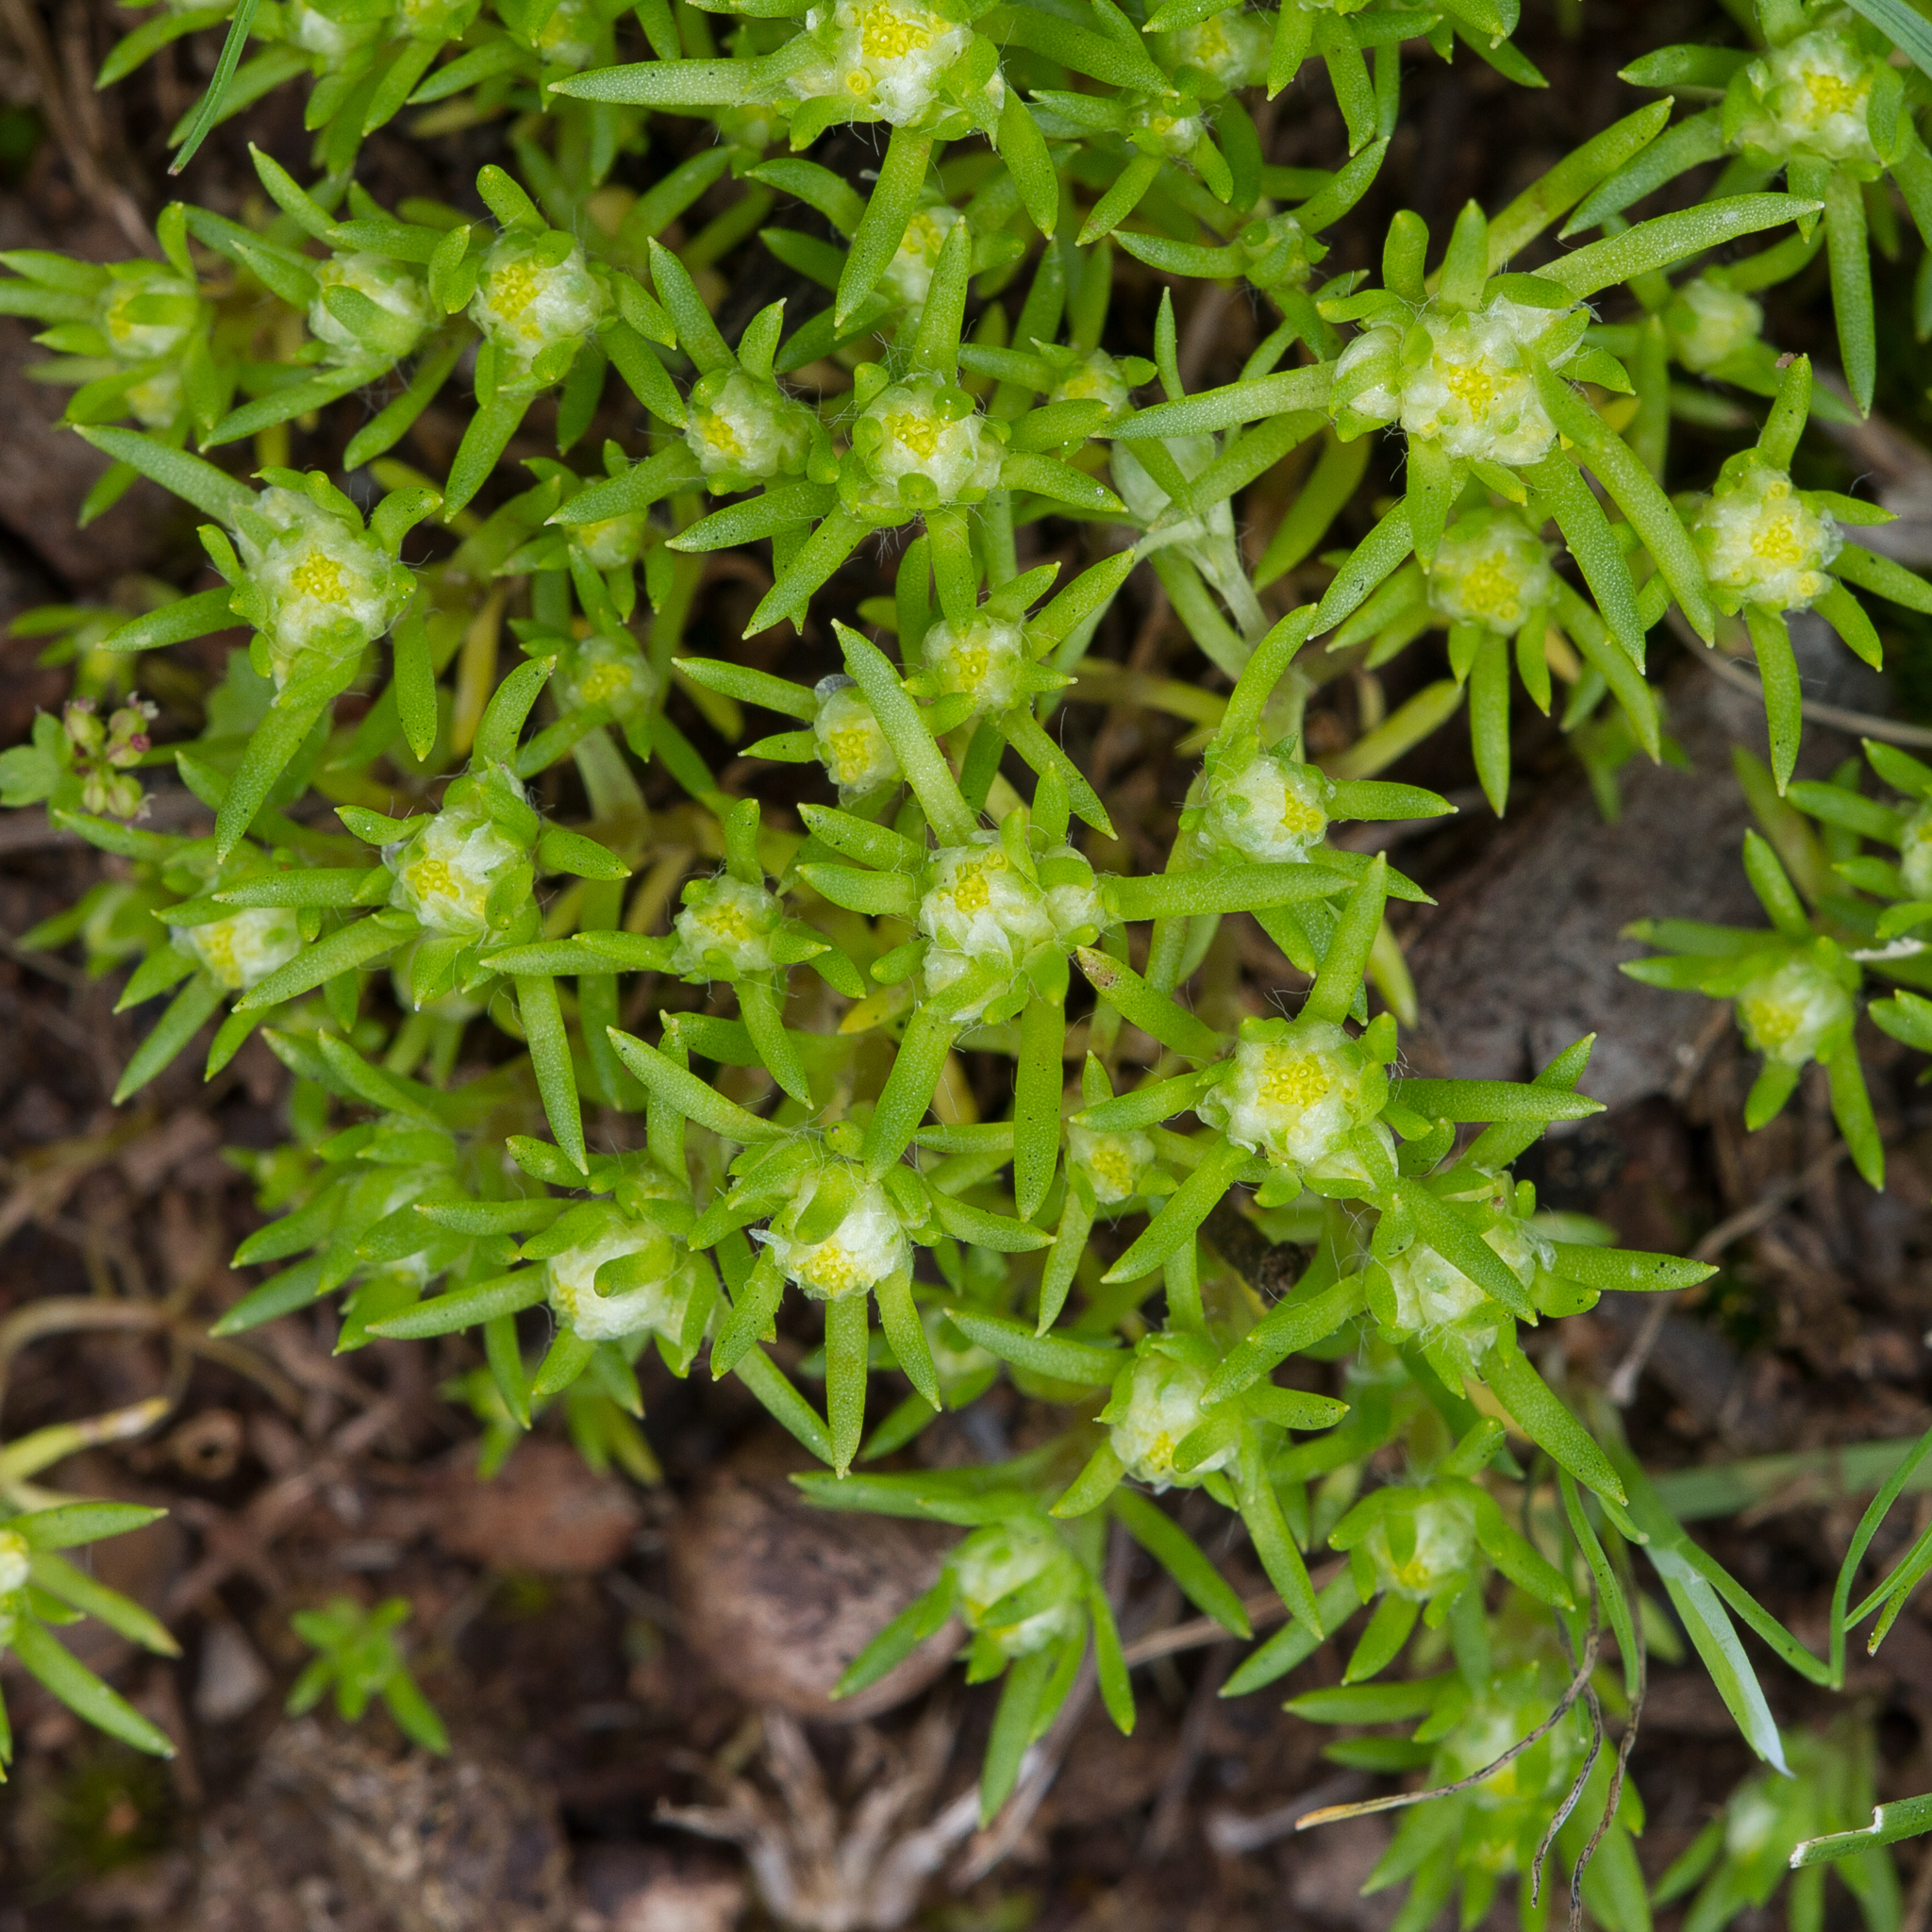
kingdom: Plantae
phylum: Tracheophyta
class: Magnoliopsida
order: Asterales
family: Asteraceae
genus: Hyalosperma
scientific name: Hyalosperma demissum
